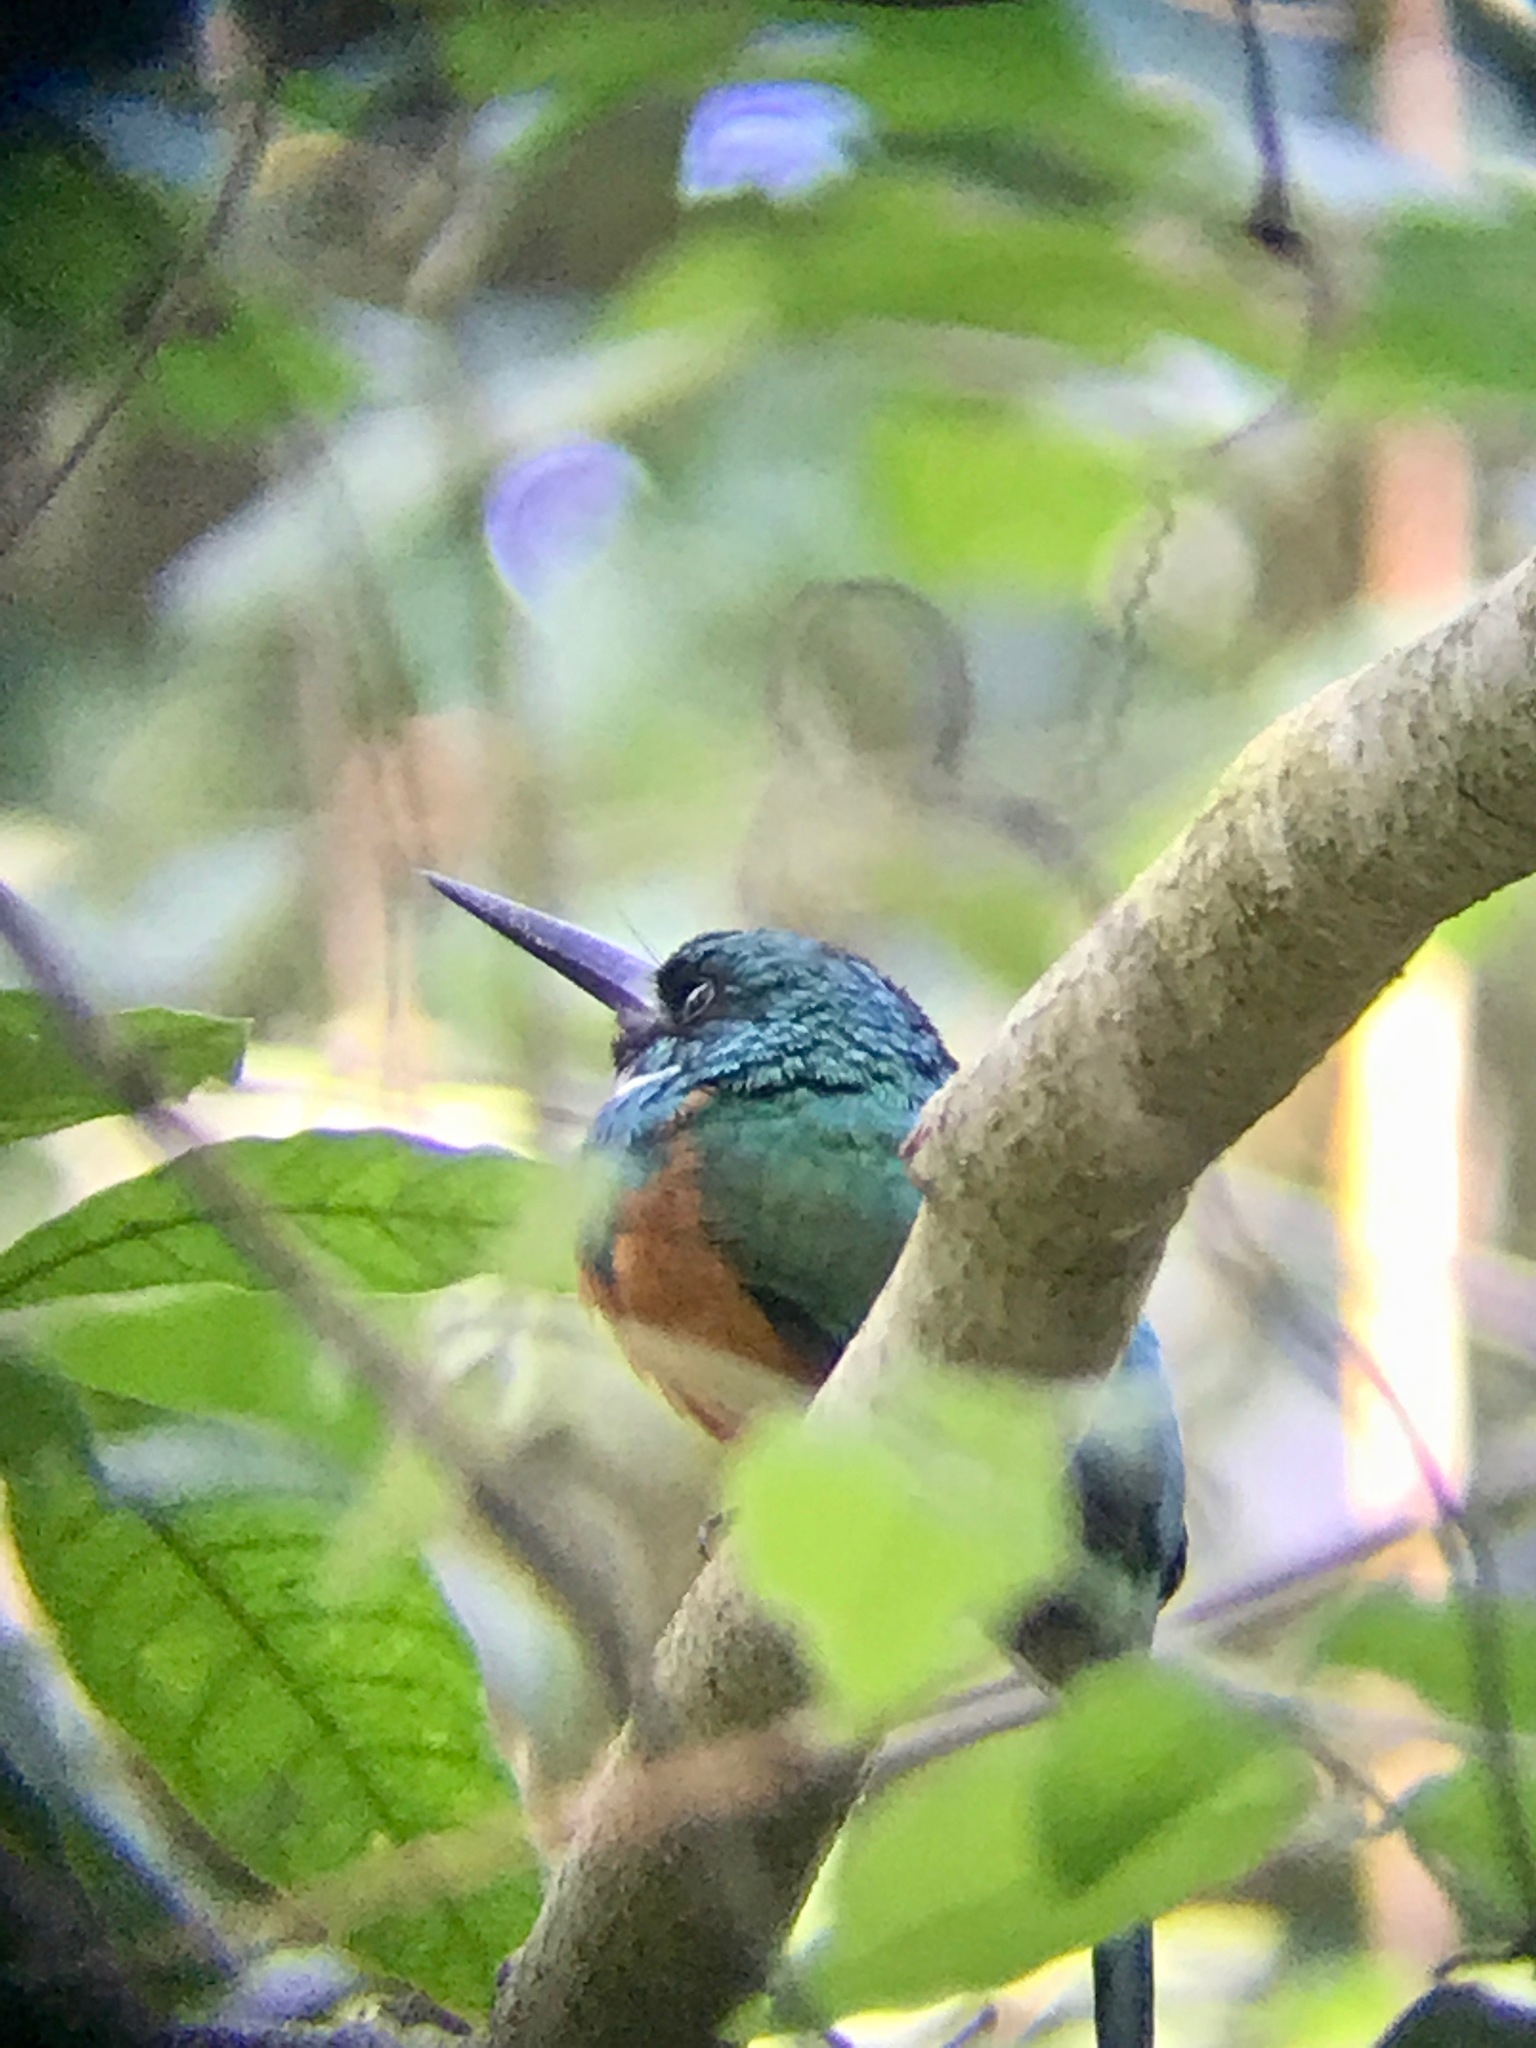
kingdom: Animalia
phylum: Chordata
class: Aves
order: Piciformes
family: Galbulidae
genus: Galbula
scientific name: Galbula ruficauda
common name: Rufous-tailed jacamar
